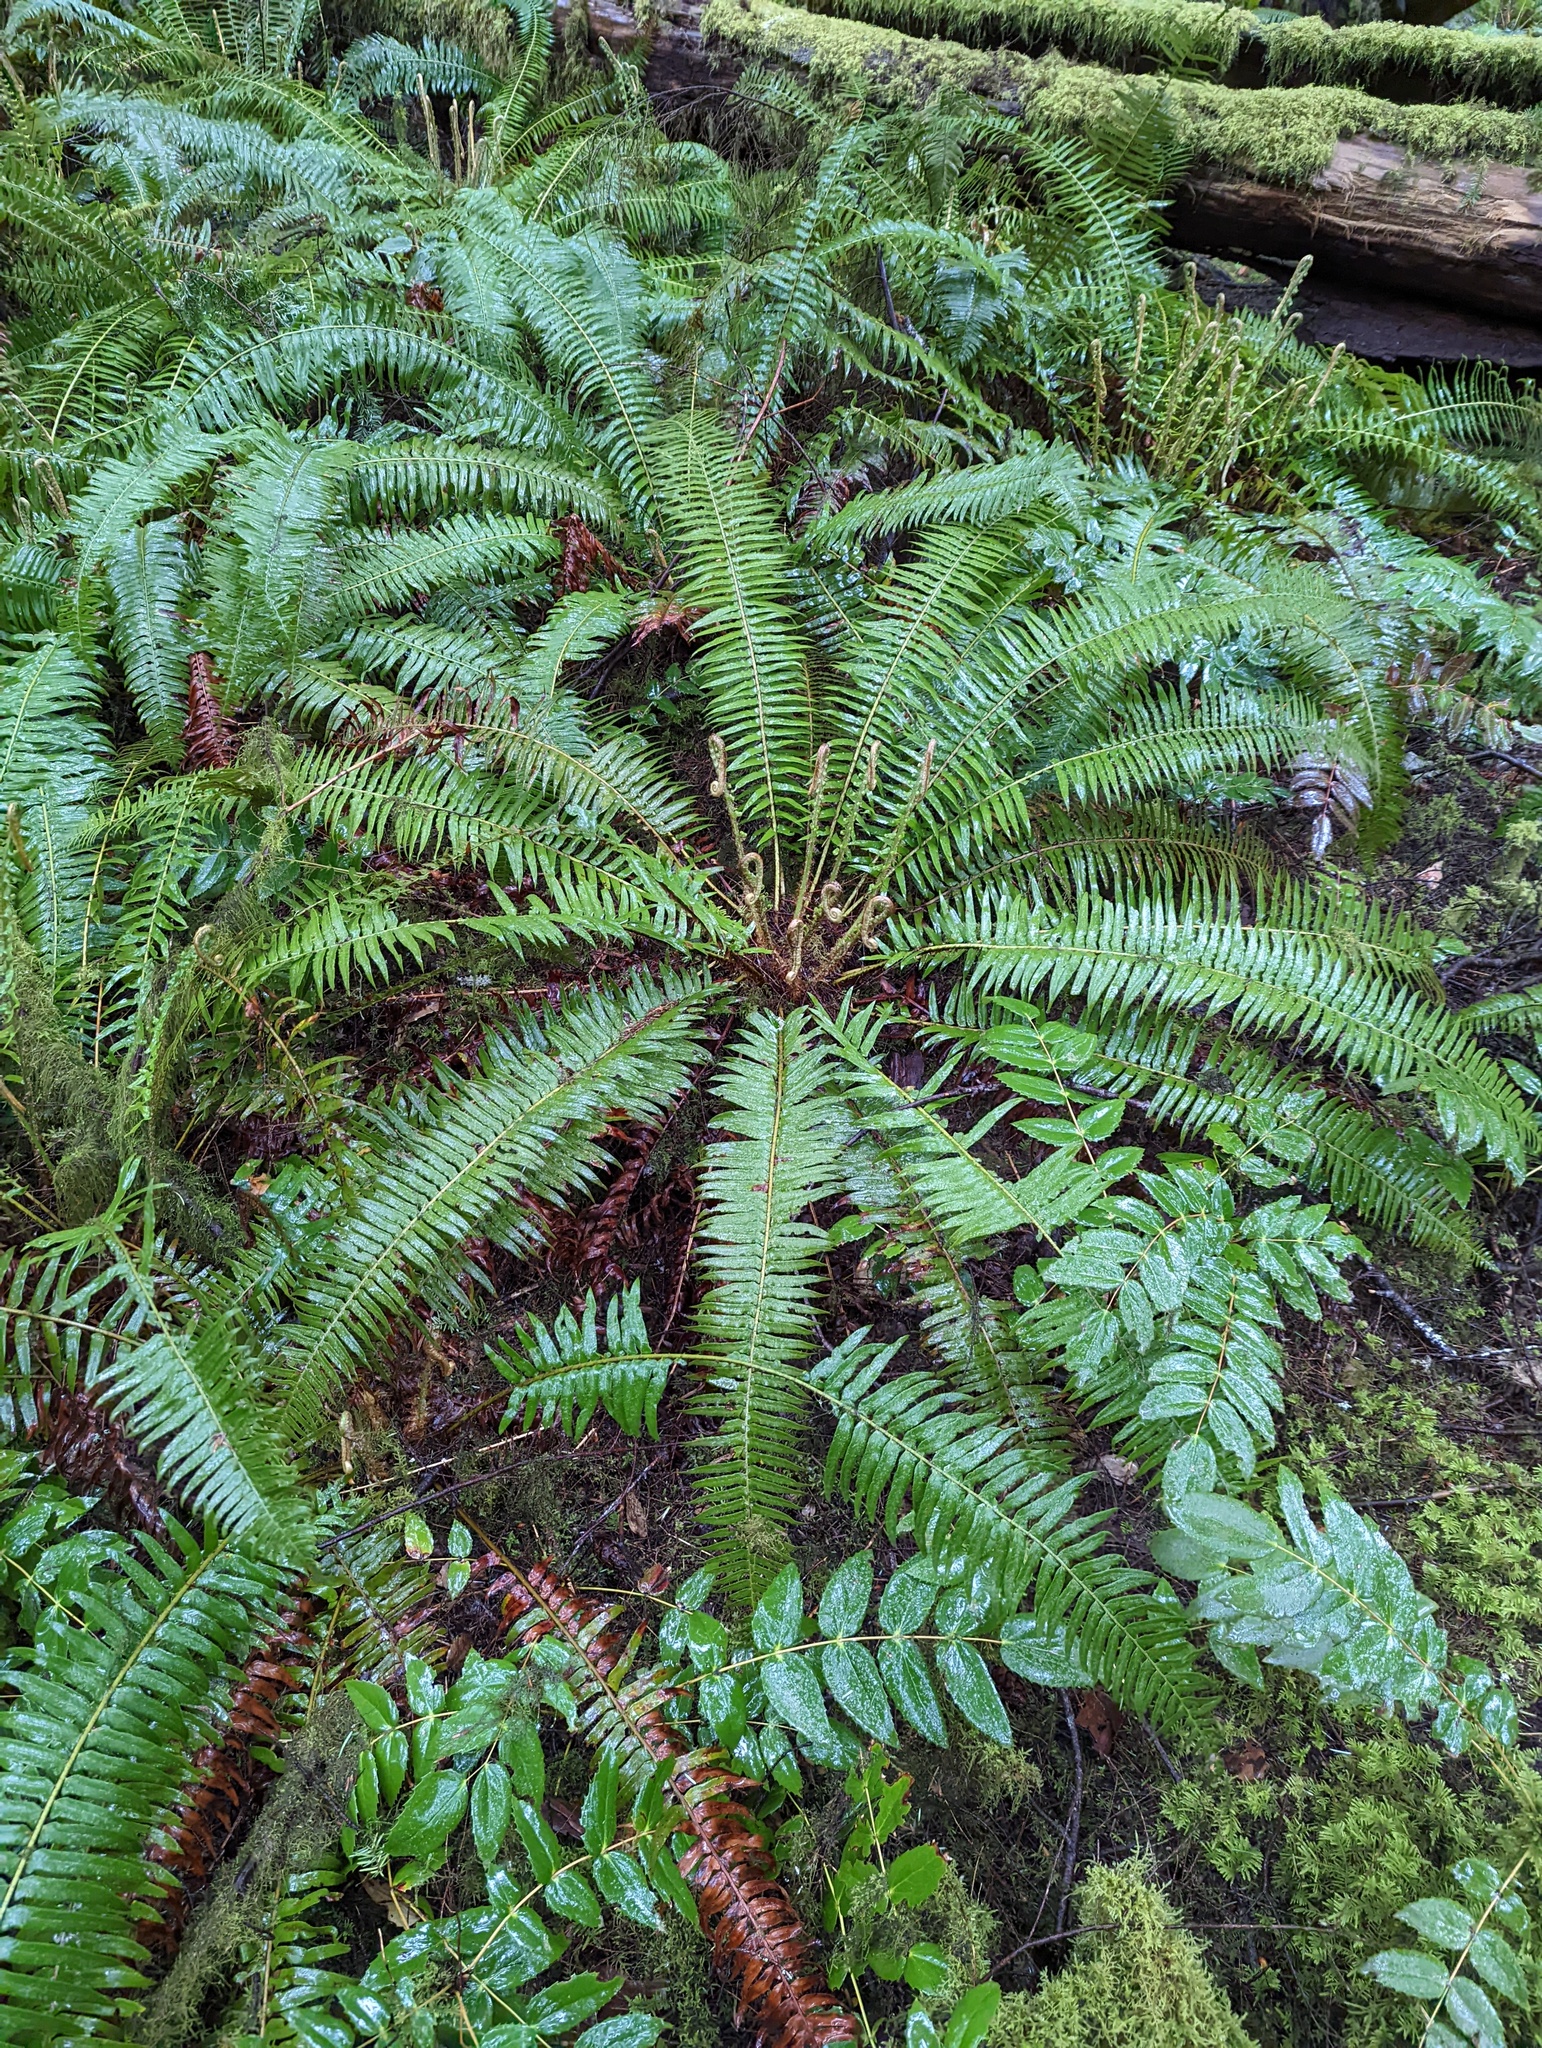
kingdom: Plantae
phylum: Tracheophyta
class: Polypodiopsida
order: Polypodiales
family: Dryopteridaceae
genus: Polystichum
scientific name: Polystichum munitum
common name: Western sword-fern
